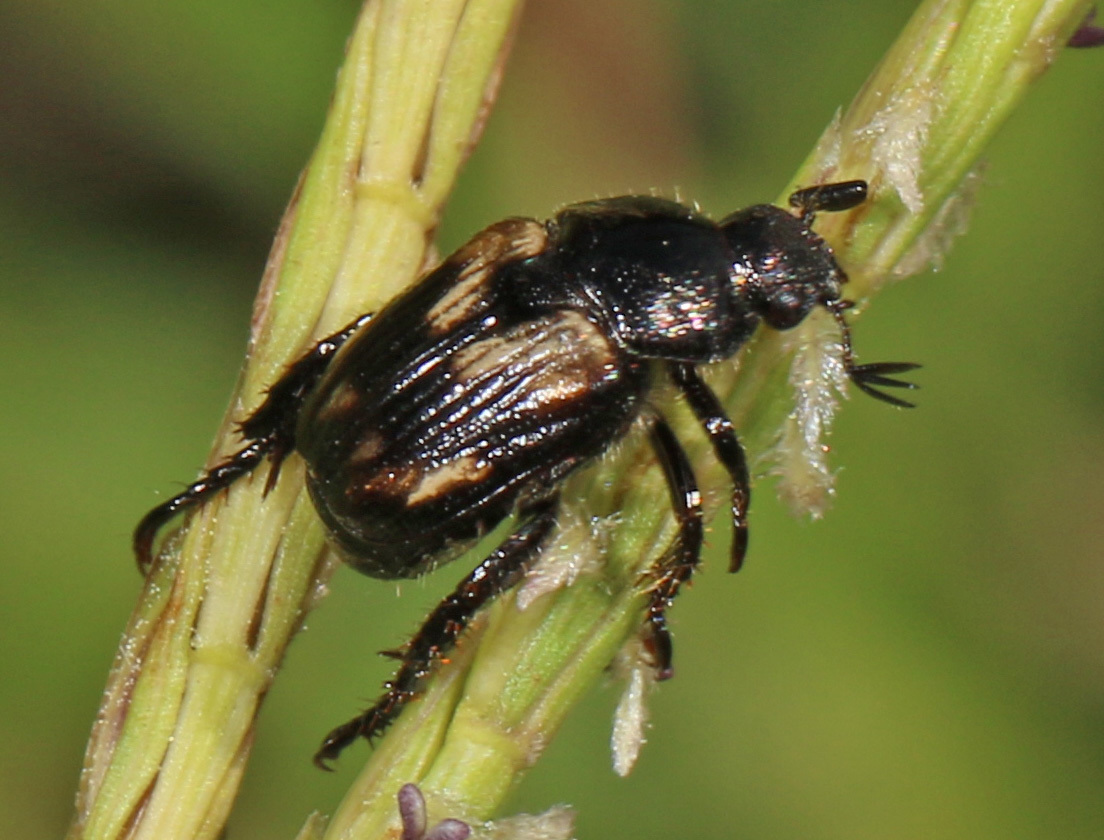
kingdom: Animalia
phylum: Arthropoda
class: Insecta
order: Coleoptera
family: Scarabaeidae
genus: Strigoderma
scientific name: Strigoderma pygmaea
